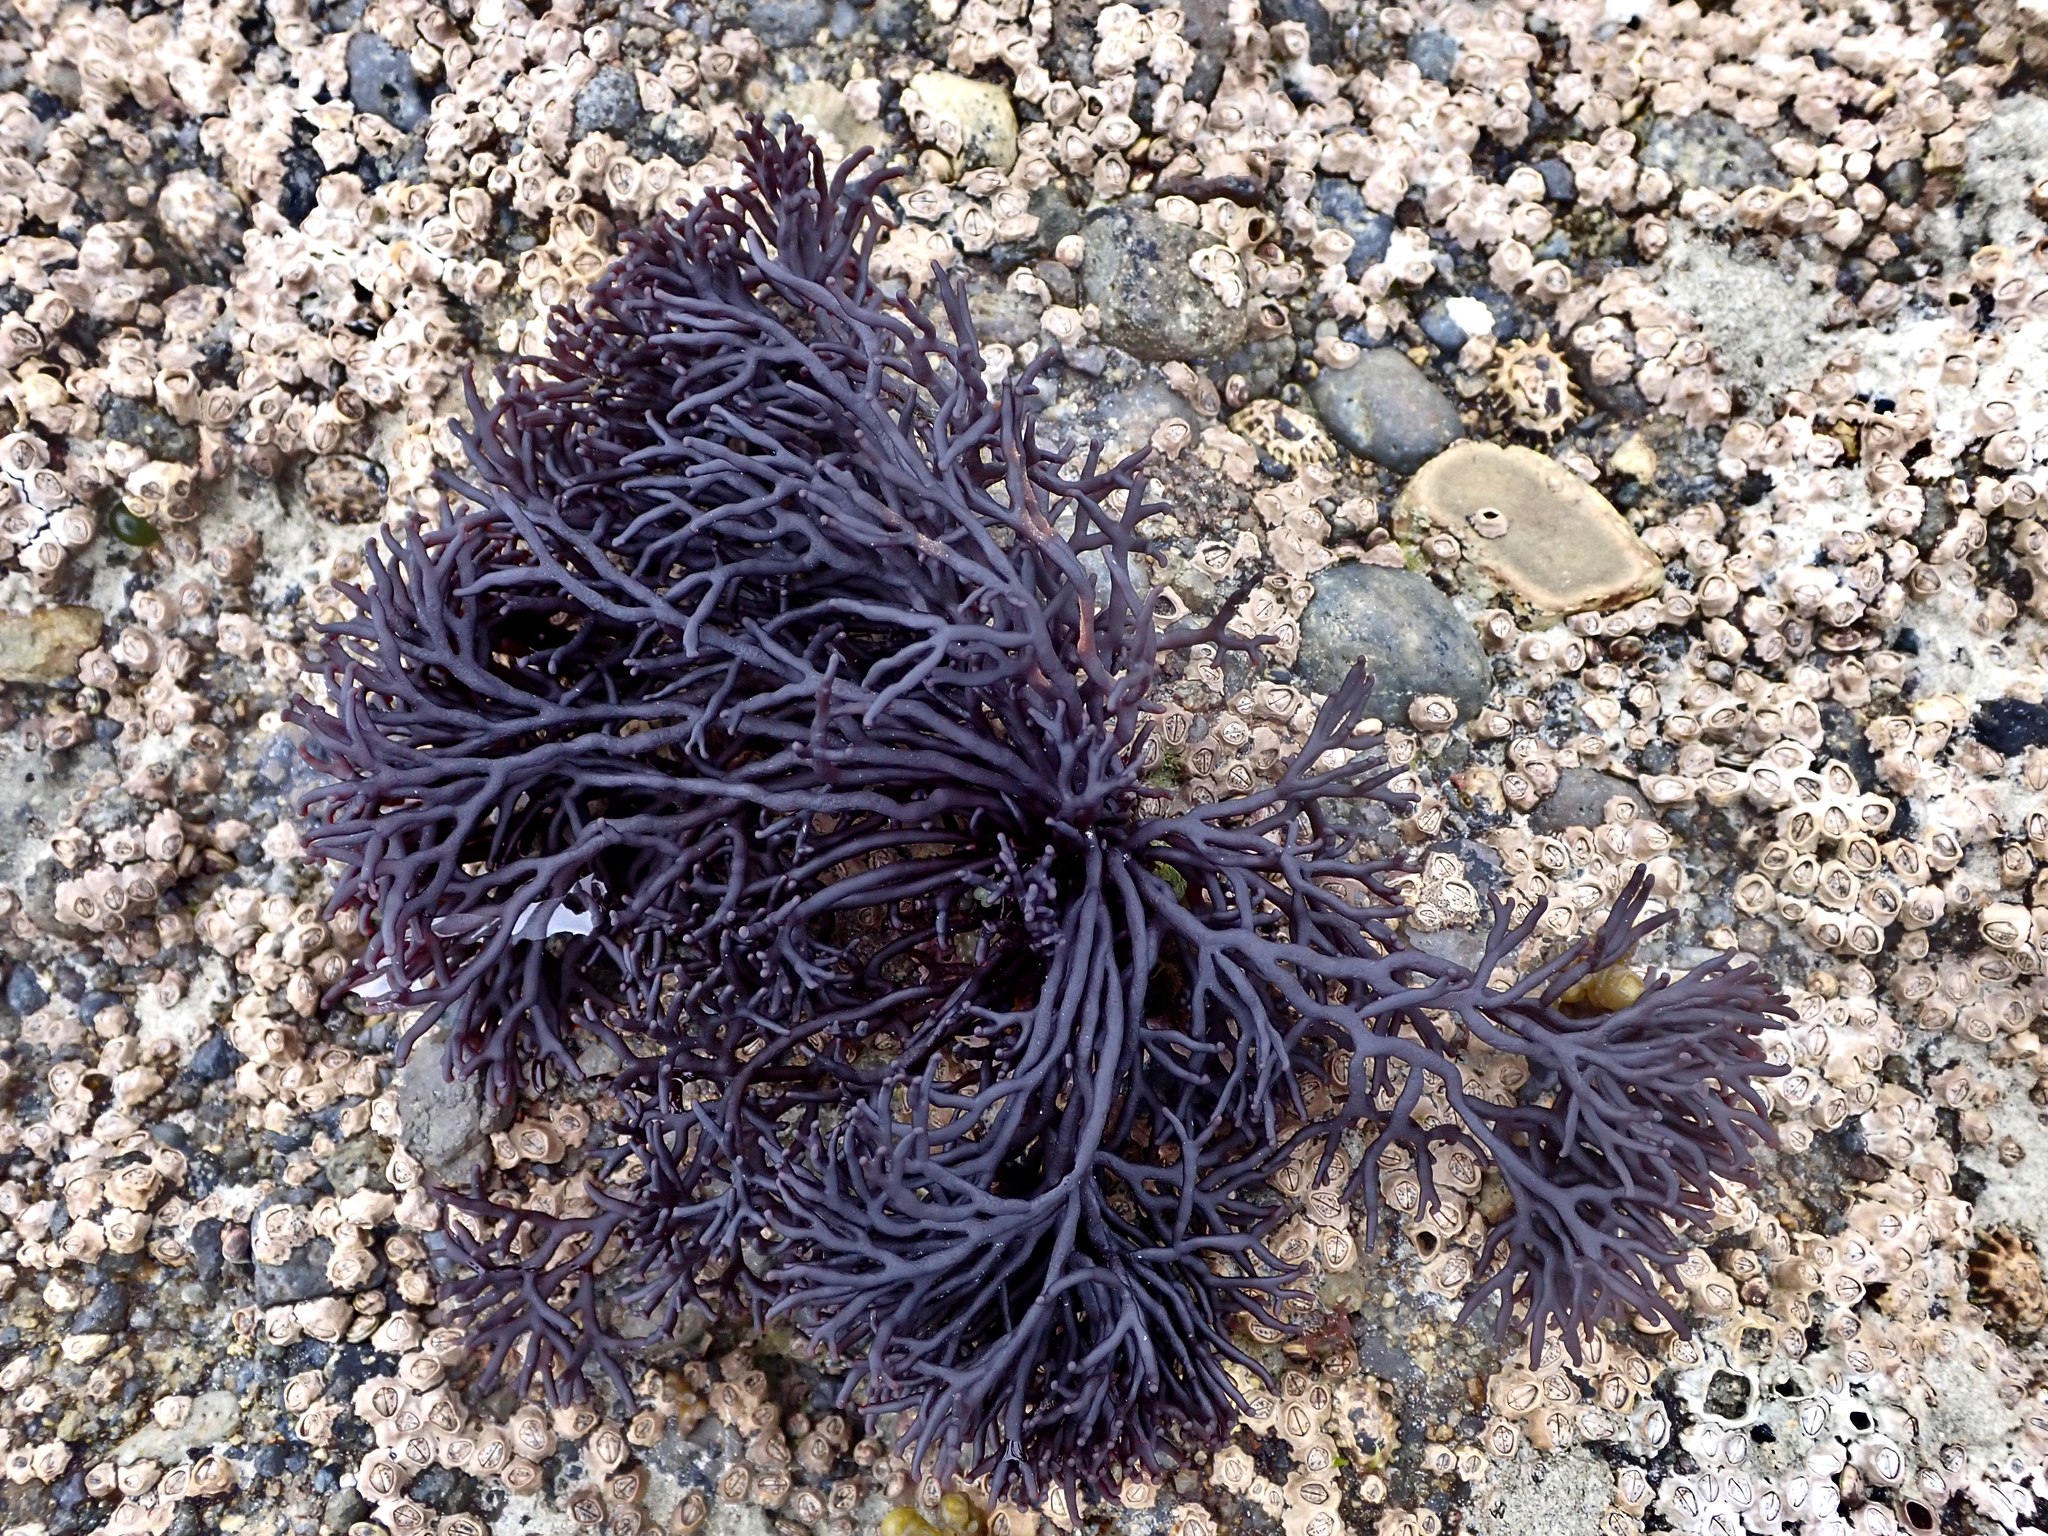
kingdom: Plantae
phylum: Rhodophyta
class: Florideophyceae
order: Hildenbrandiales
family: Hildenbrandiaceae
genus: Apophlaea
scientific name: Apophlaea lyallii
